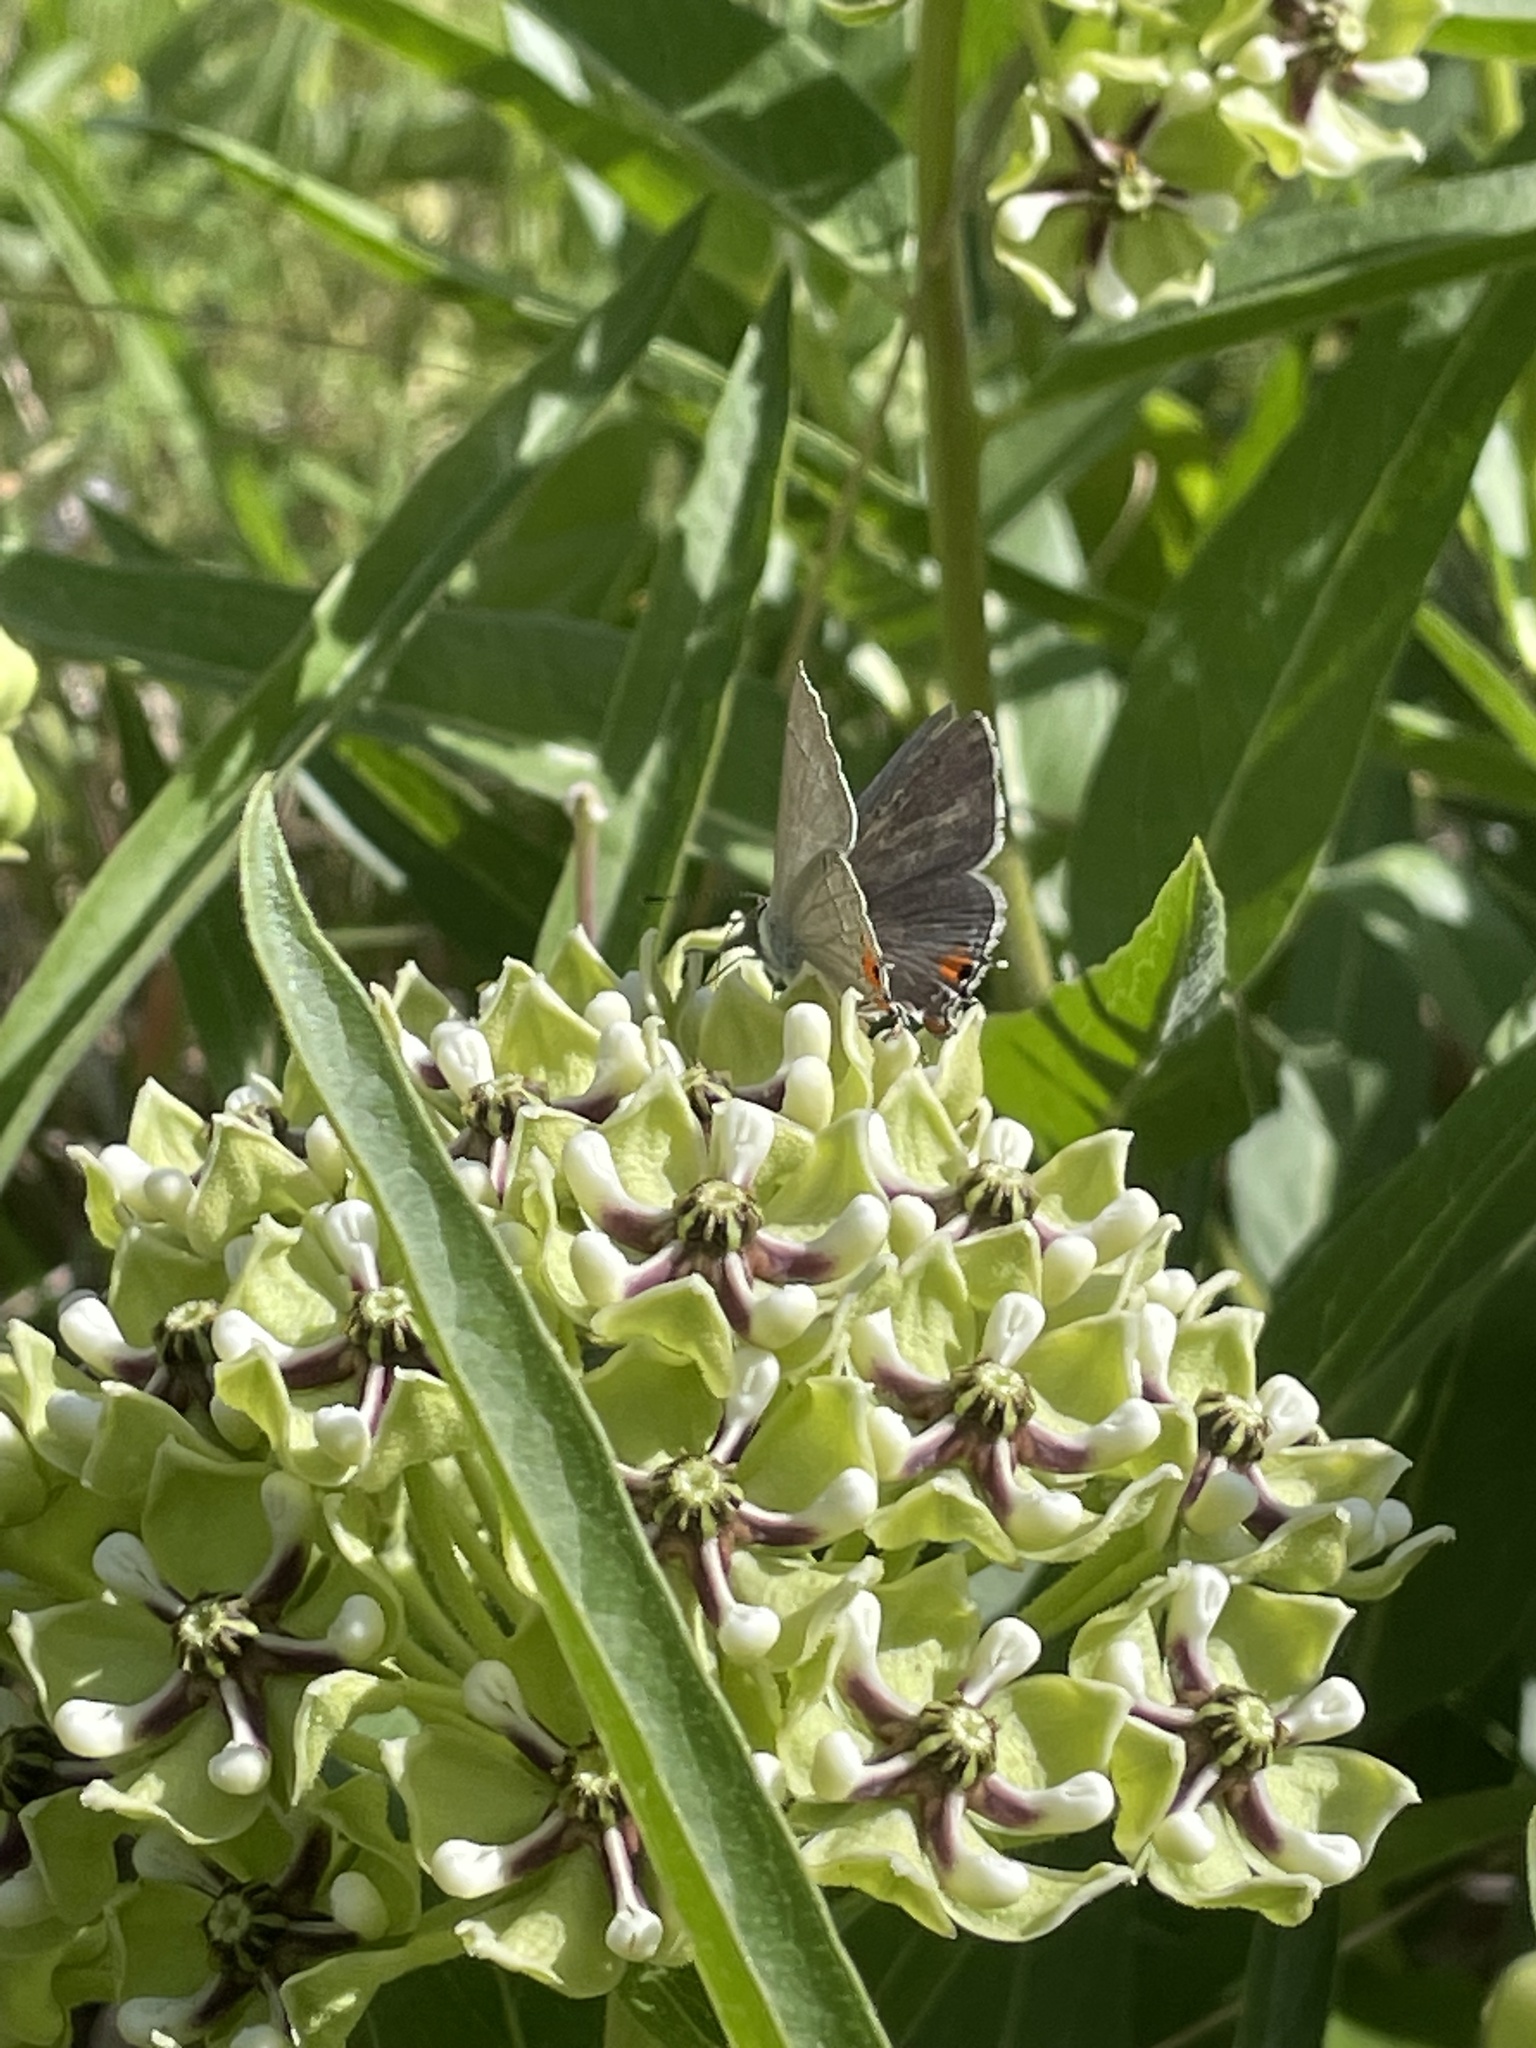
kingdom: Animalia
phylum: Arthropoda
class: Insecta
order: Lepidoptera
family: Lycaenidae
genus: Strymon
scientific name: Strymon melinus
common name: Gray hairstreak
